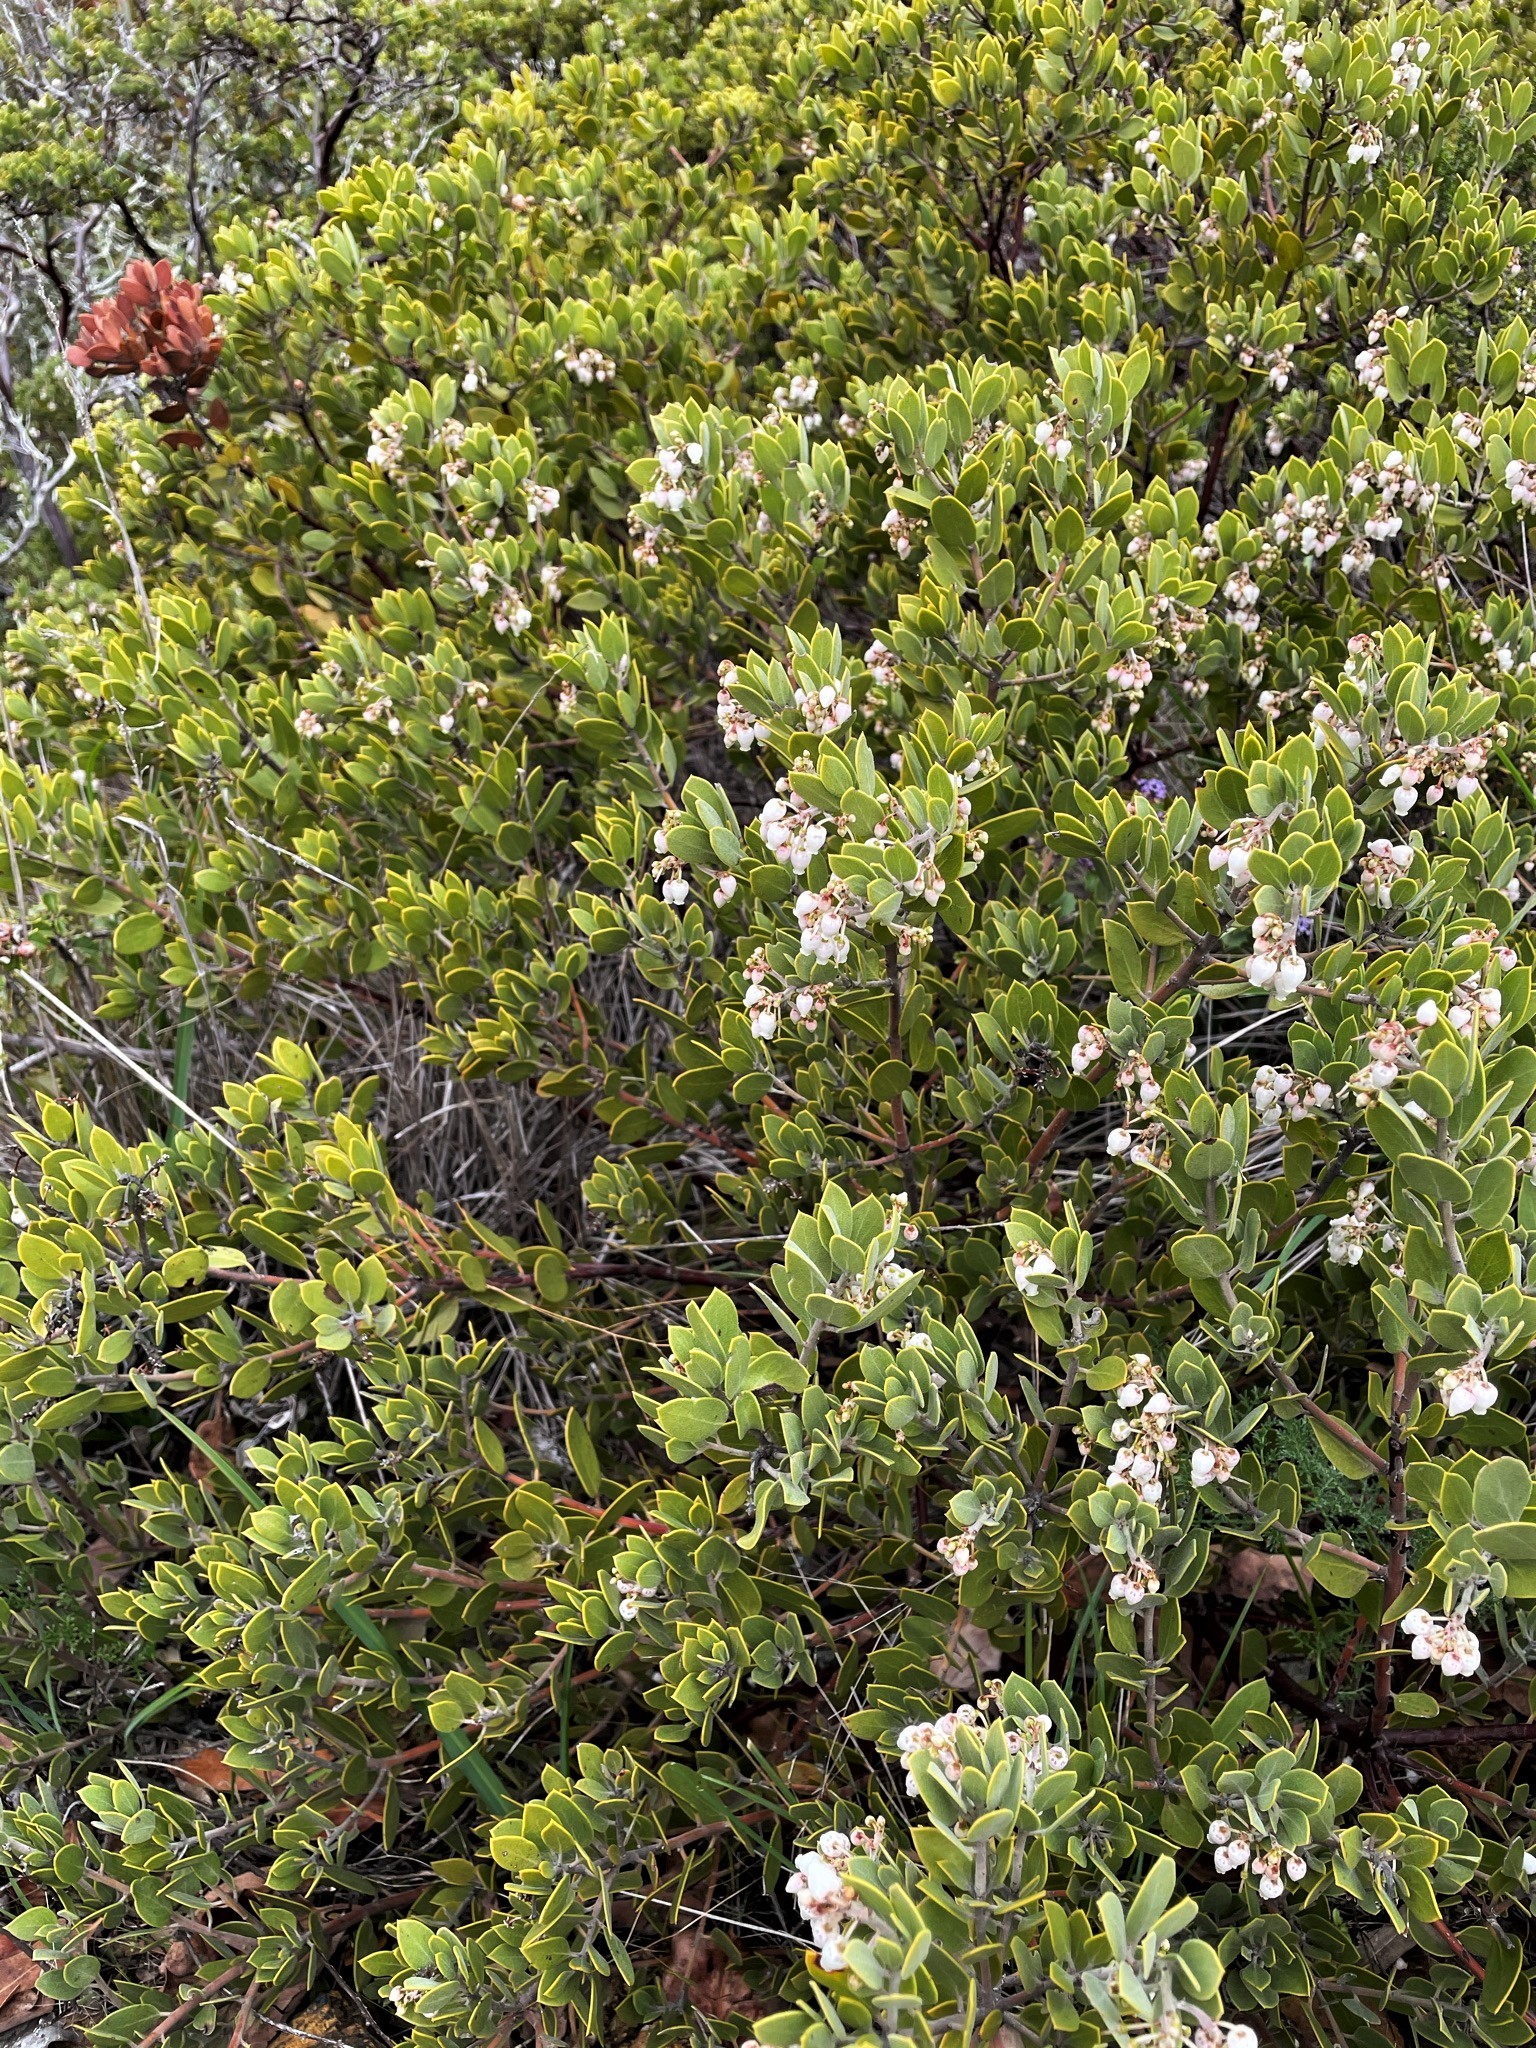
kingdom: Plantae
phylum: Tracheophyta
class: Magnoliopsida
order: Ericales
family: Ericaceae
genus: Arctostaphylos
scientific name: Arctostaphylos montana
